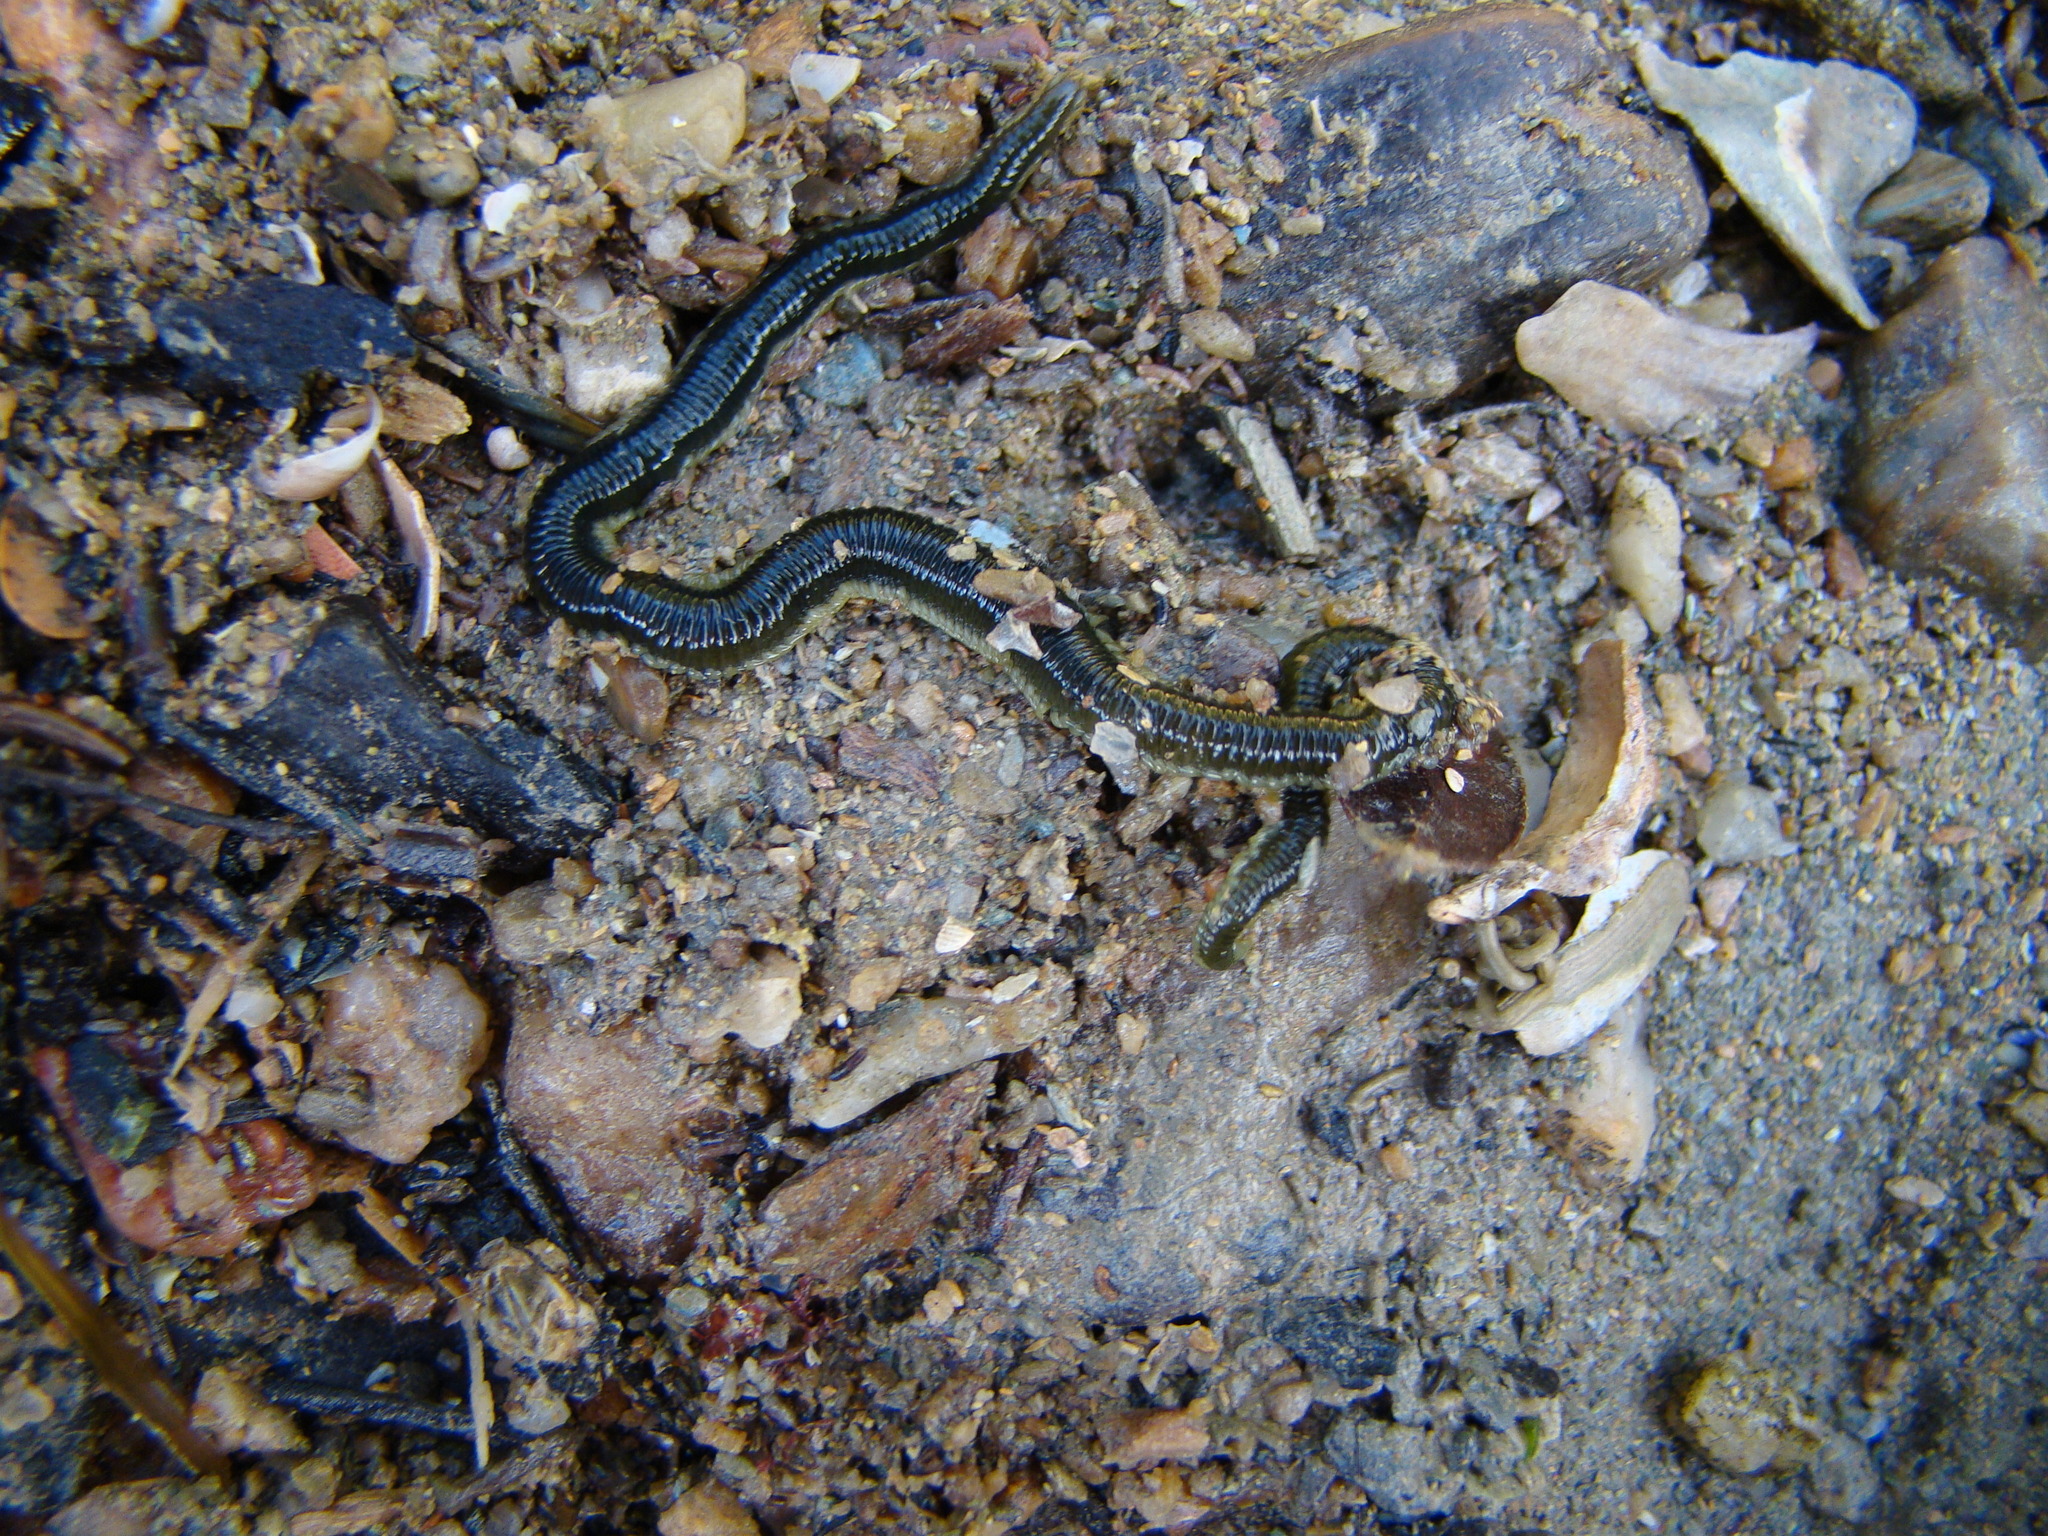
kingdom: Animalia
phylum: Annelida
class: Polychaeta
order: Phyllodocida
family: Phyllodocidae
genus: Eulalia
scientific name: Eulalia microphylla
